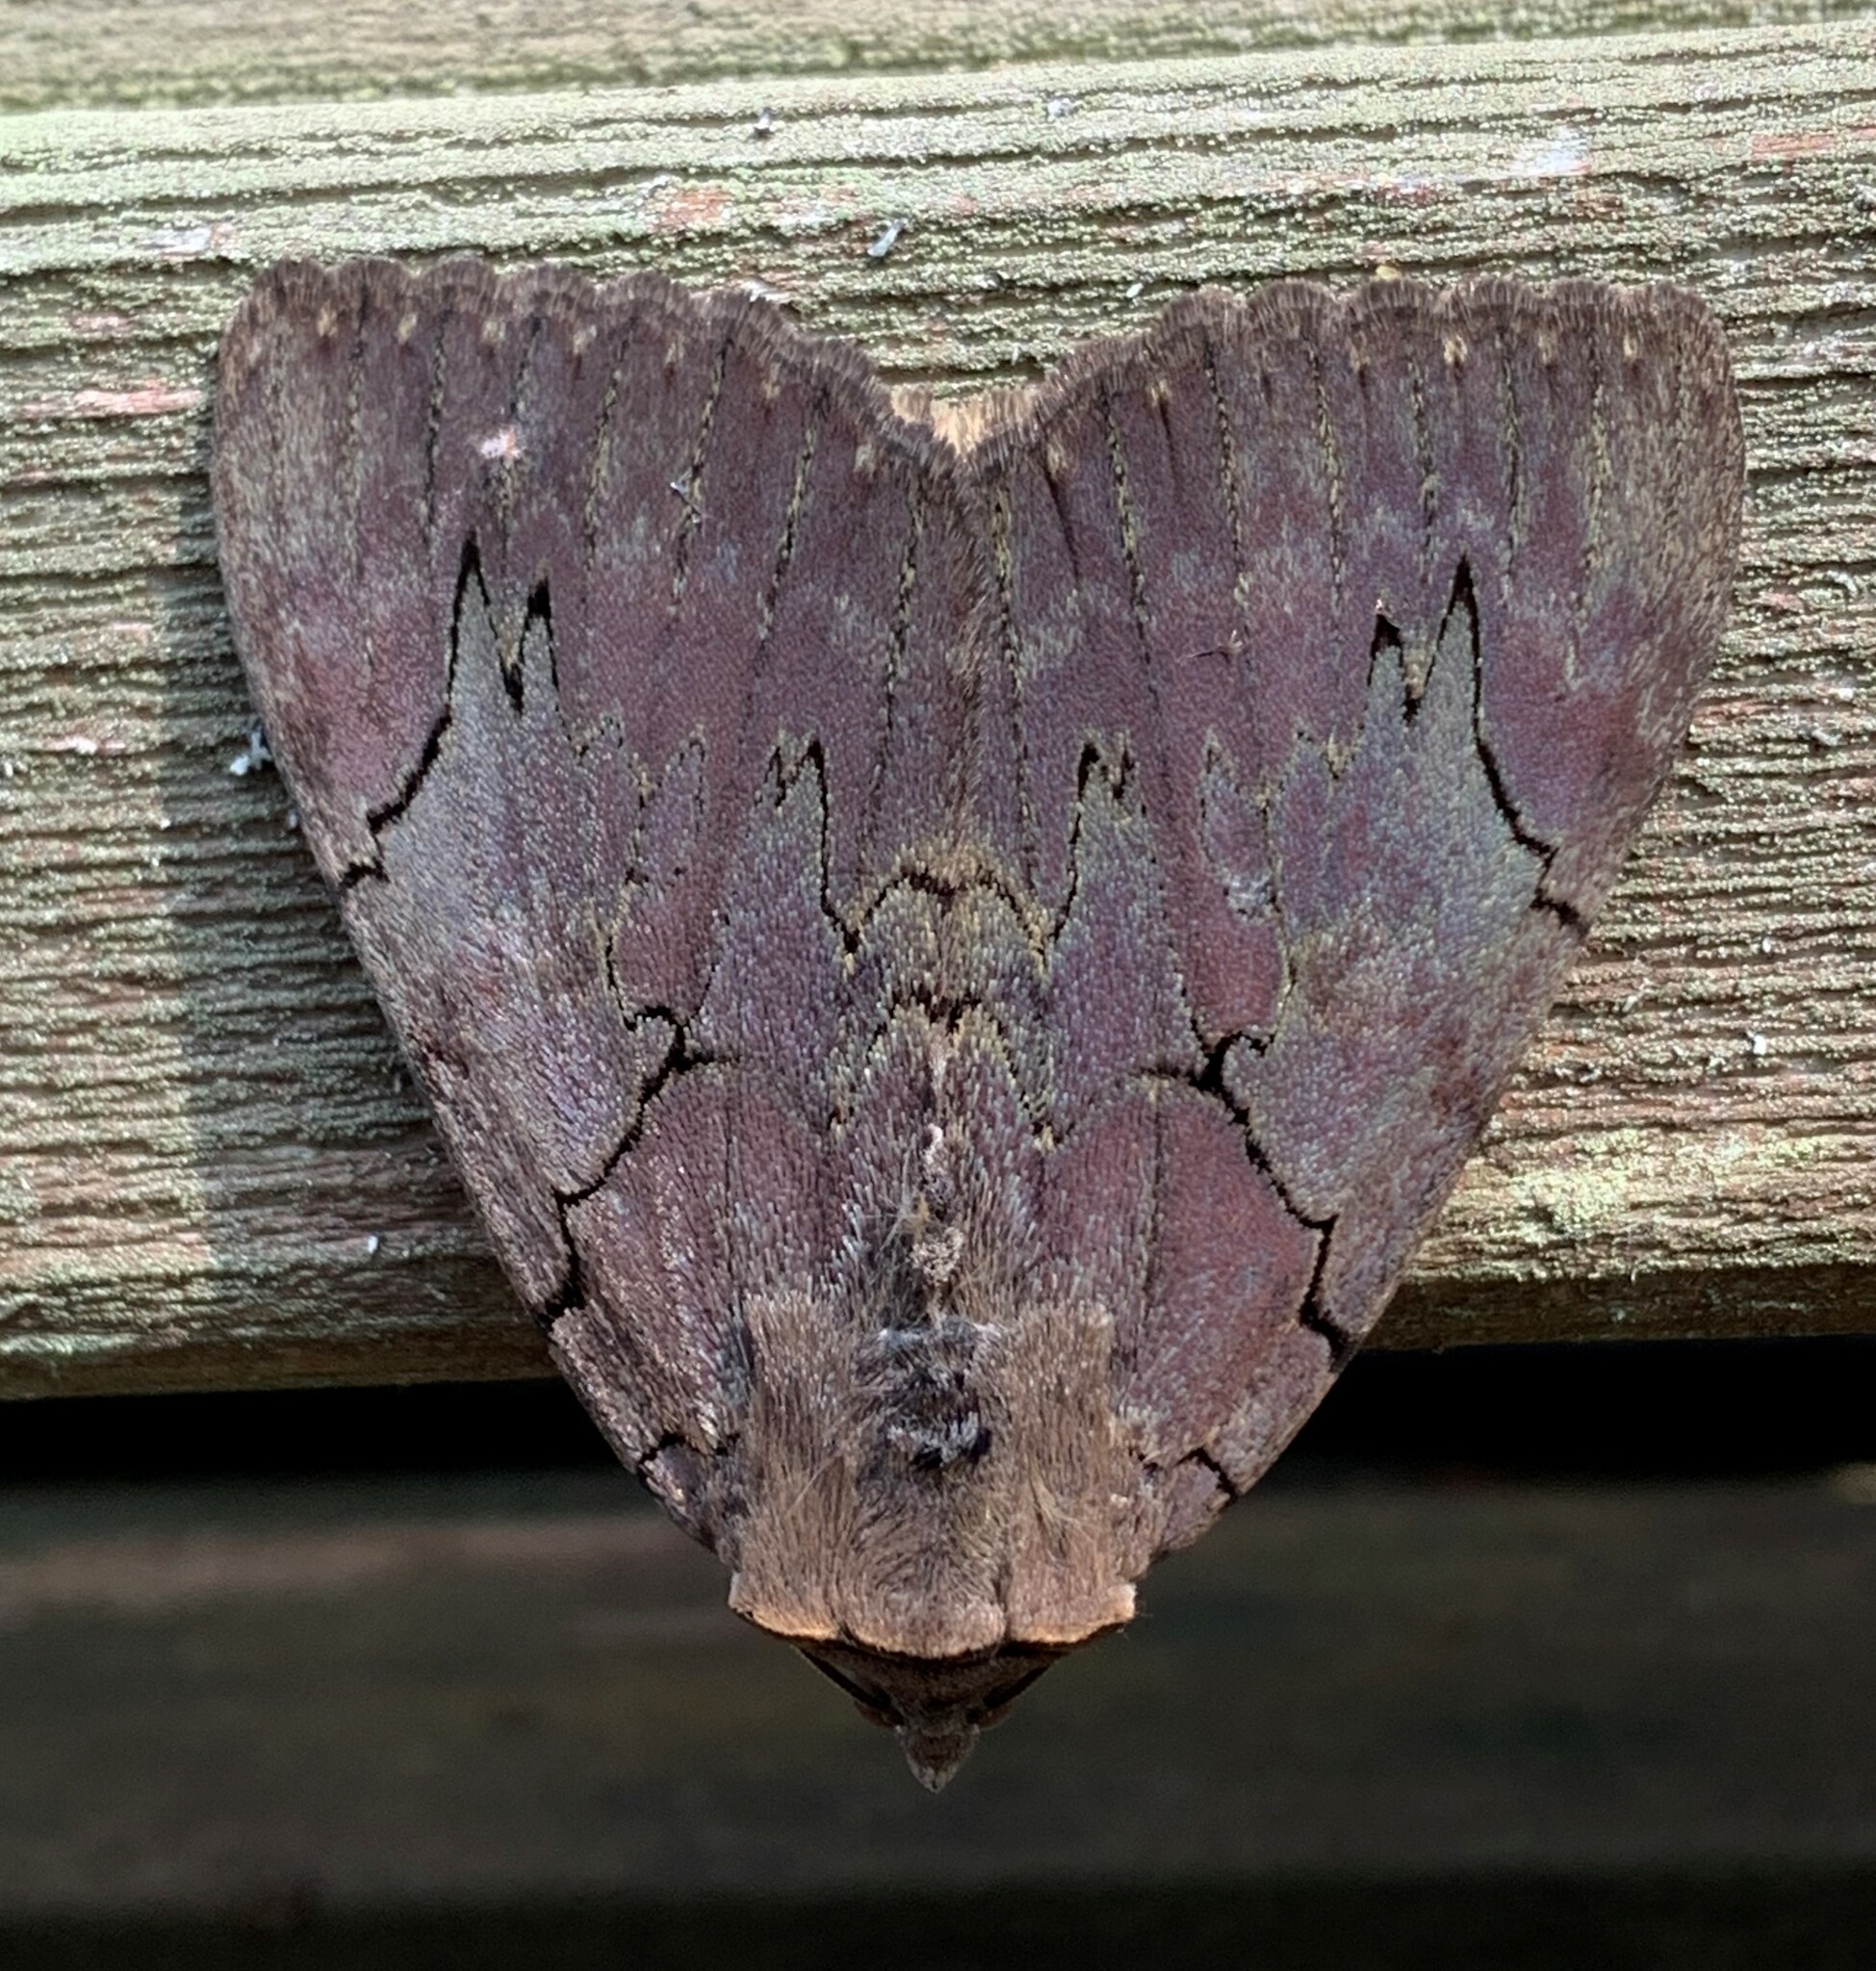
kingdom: Animalia
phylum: Arthropoda
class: Insecta
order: Lepidoptera
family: Erebidae
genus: Catocala
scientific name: Catocala cara
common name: Darling underwing
